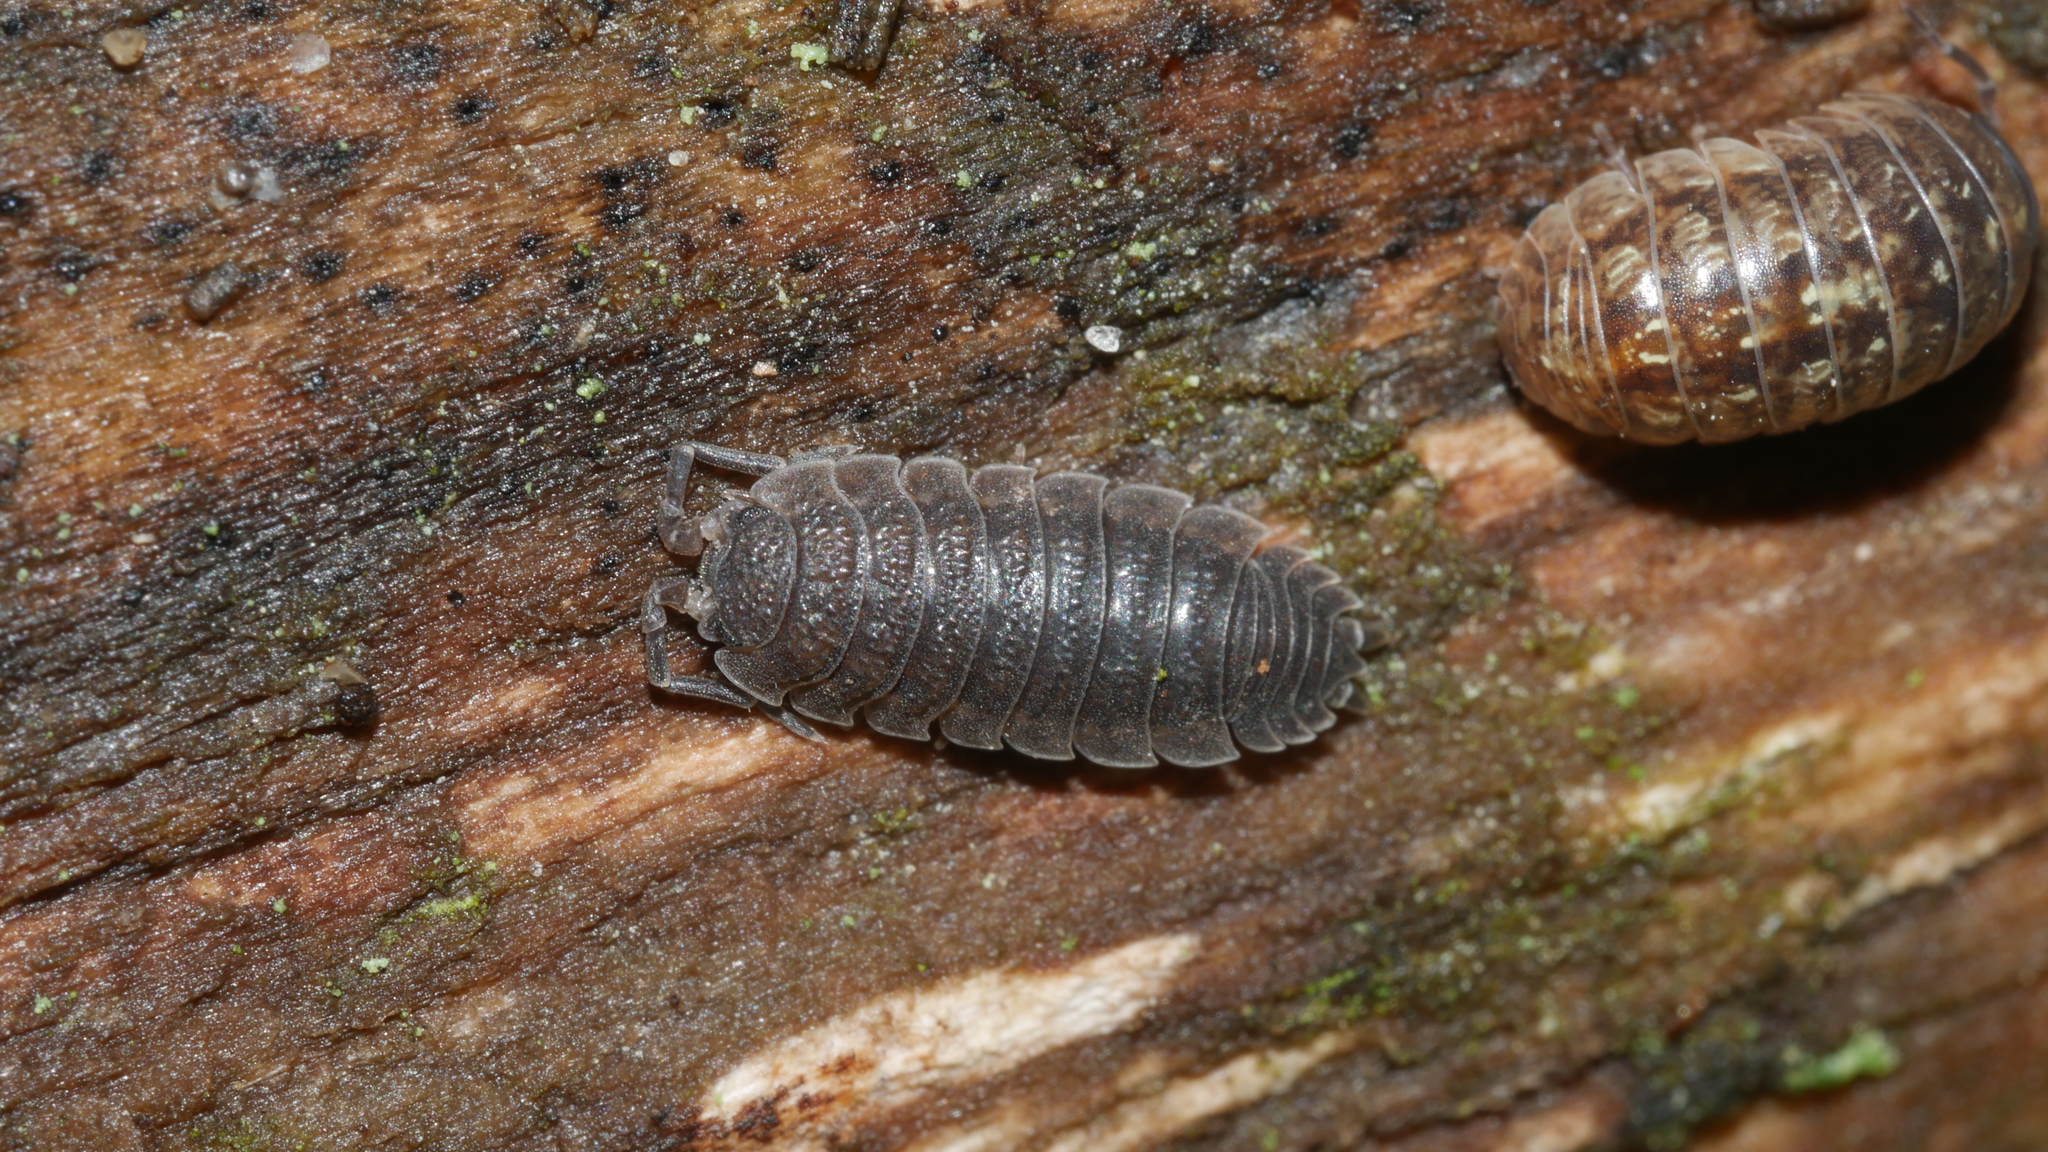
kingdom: Animalia
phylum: Arthropoda
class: Malacostraca
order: Isopoda
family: Porcellionidae
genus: Porcellio
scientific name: Porcellio scaber
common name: Common rough woodlouse
